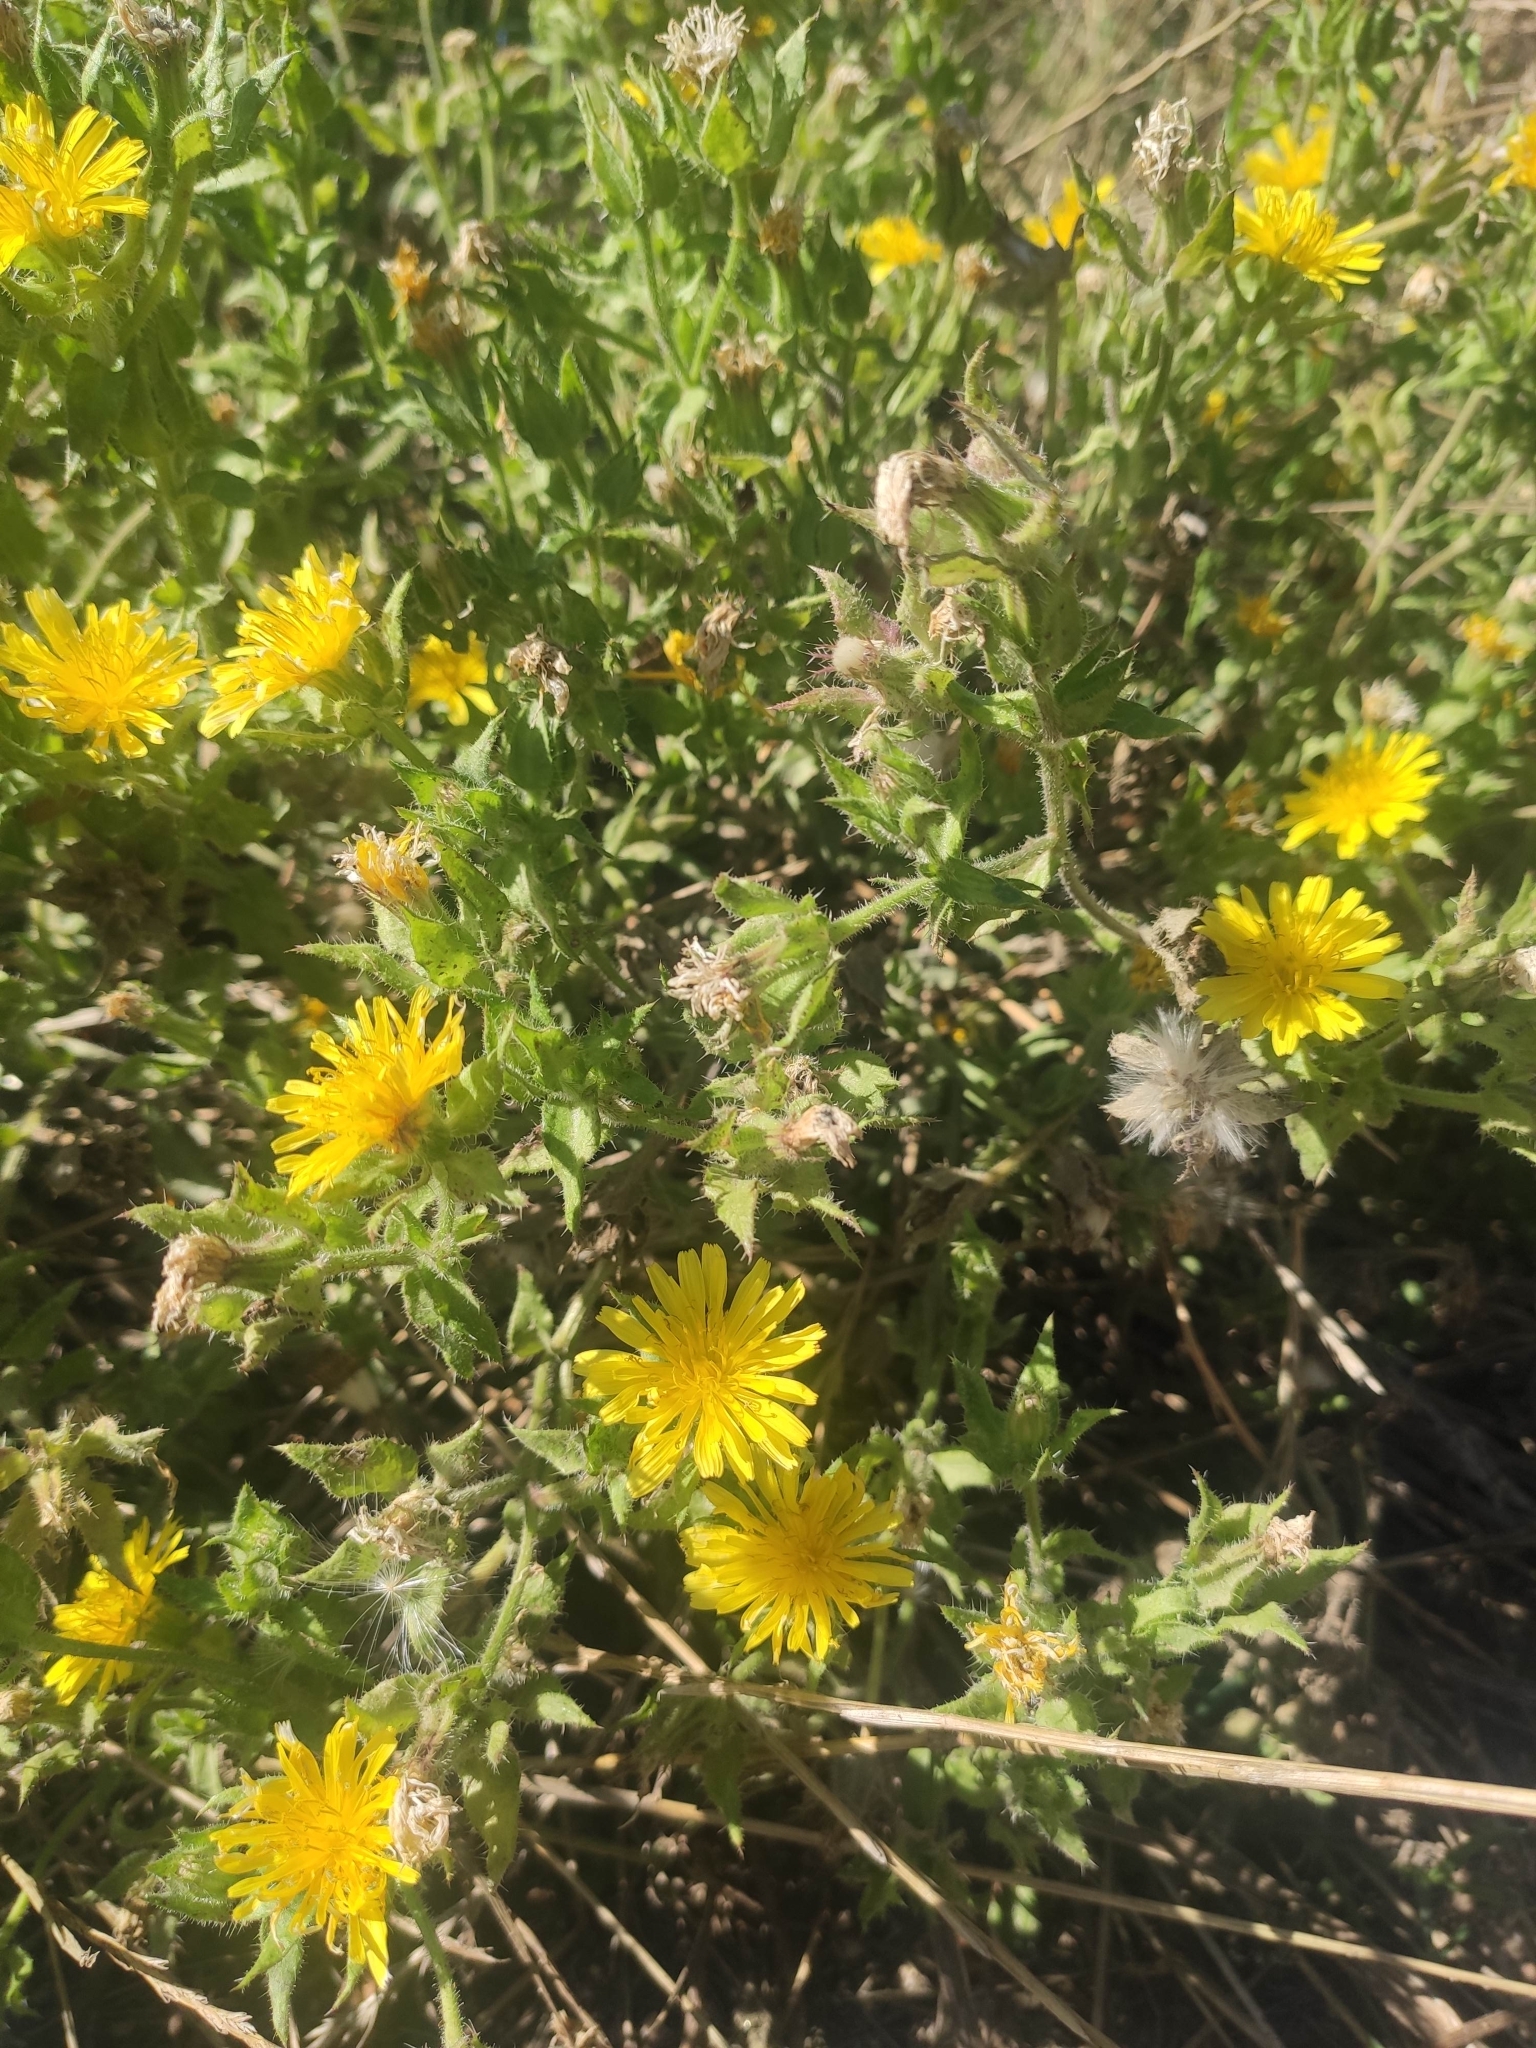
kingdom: Plantae
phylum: Tracheophyta
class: Magnoliopsida
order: Asterales
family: Asteraceae
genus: Helminthotheca
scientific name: Helminthotheca echioides
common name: Ox-tongue
